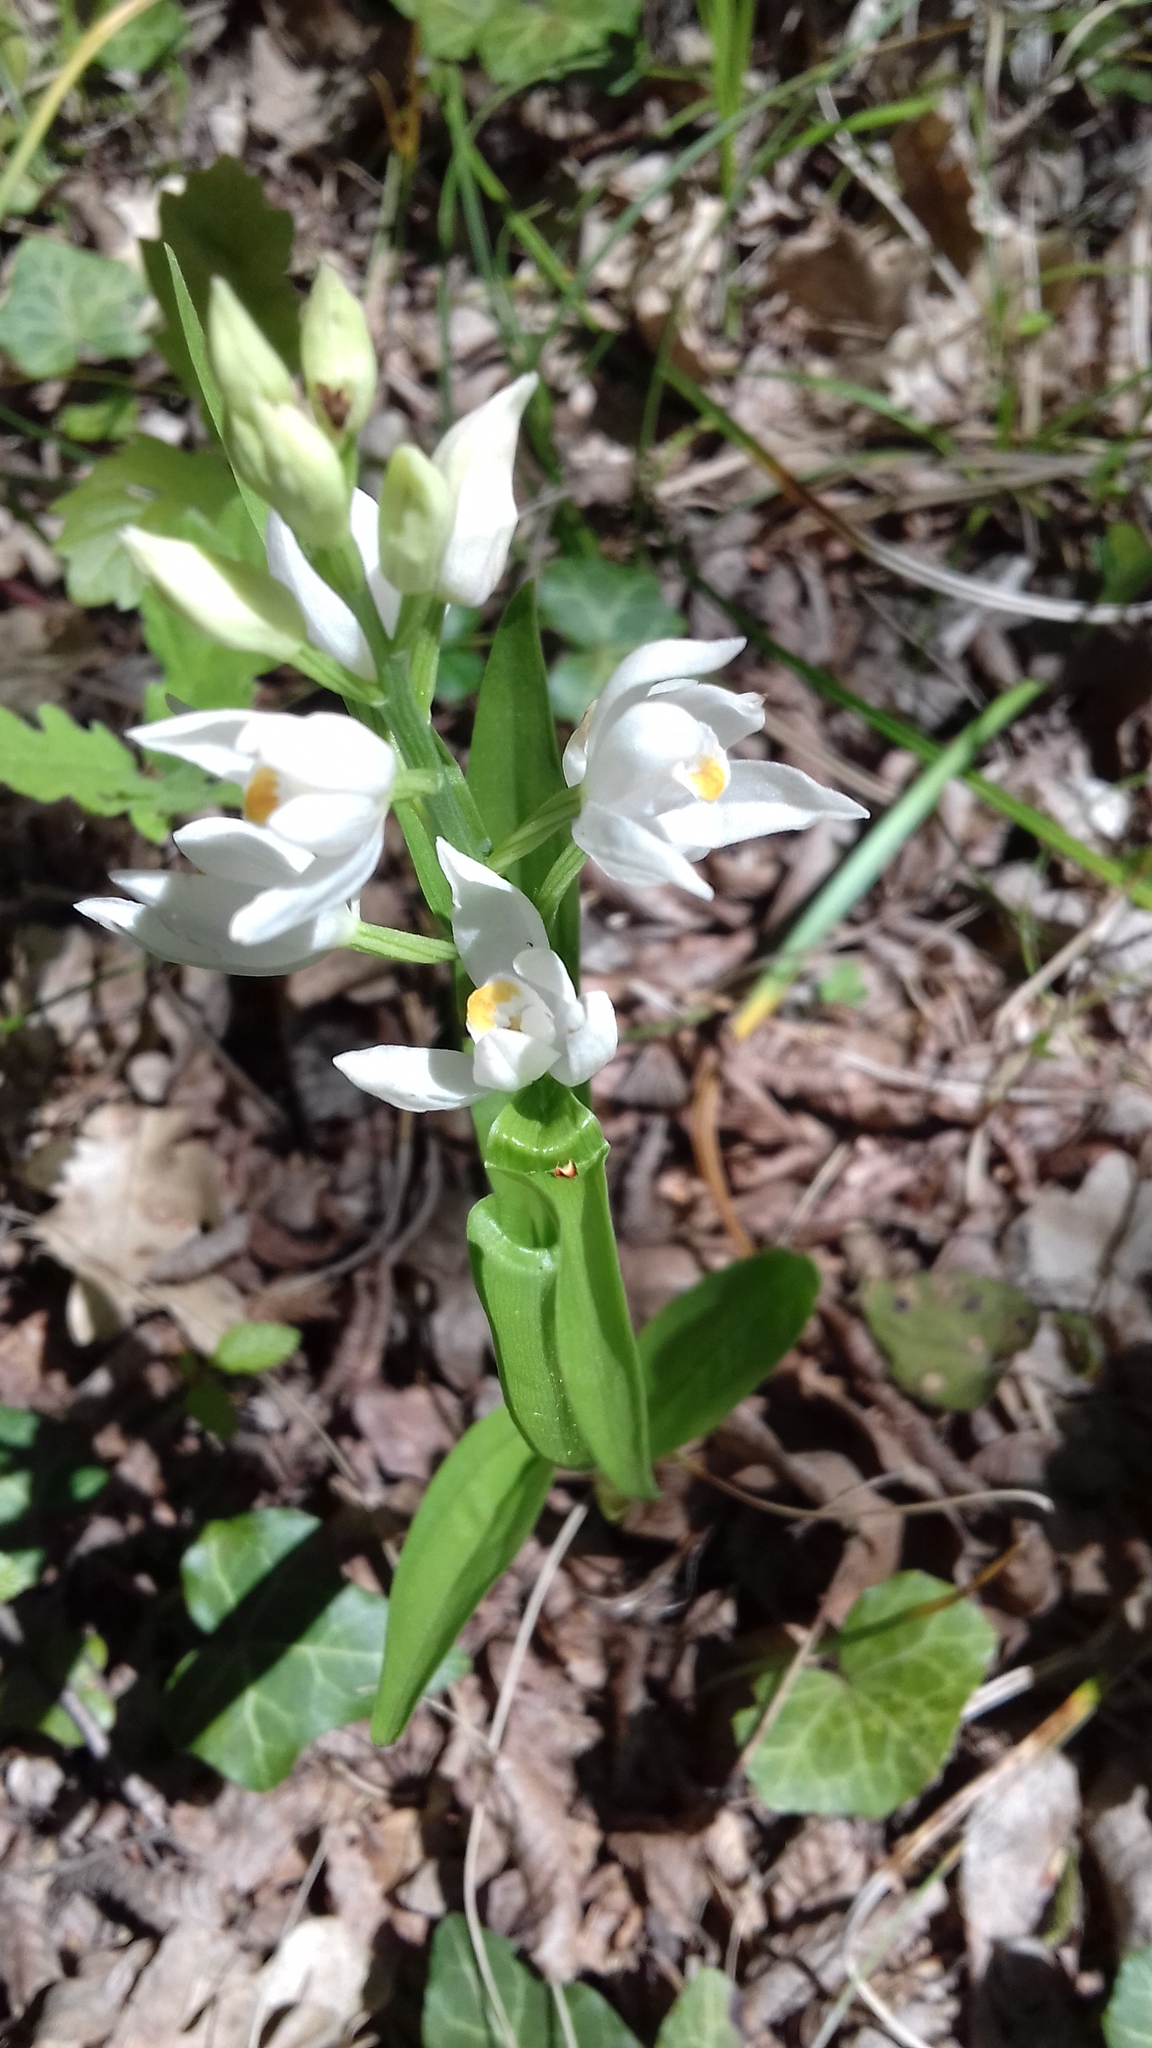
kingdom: Plantae
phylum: Tracheophyta
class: Liliopsida
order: Asparagales
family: Orchidaceae
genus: Cephalanthera
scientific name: Cephalanthera longifolia
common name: Narrow-leaved helleborine
